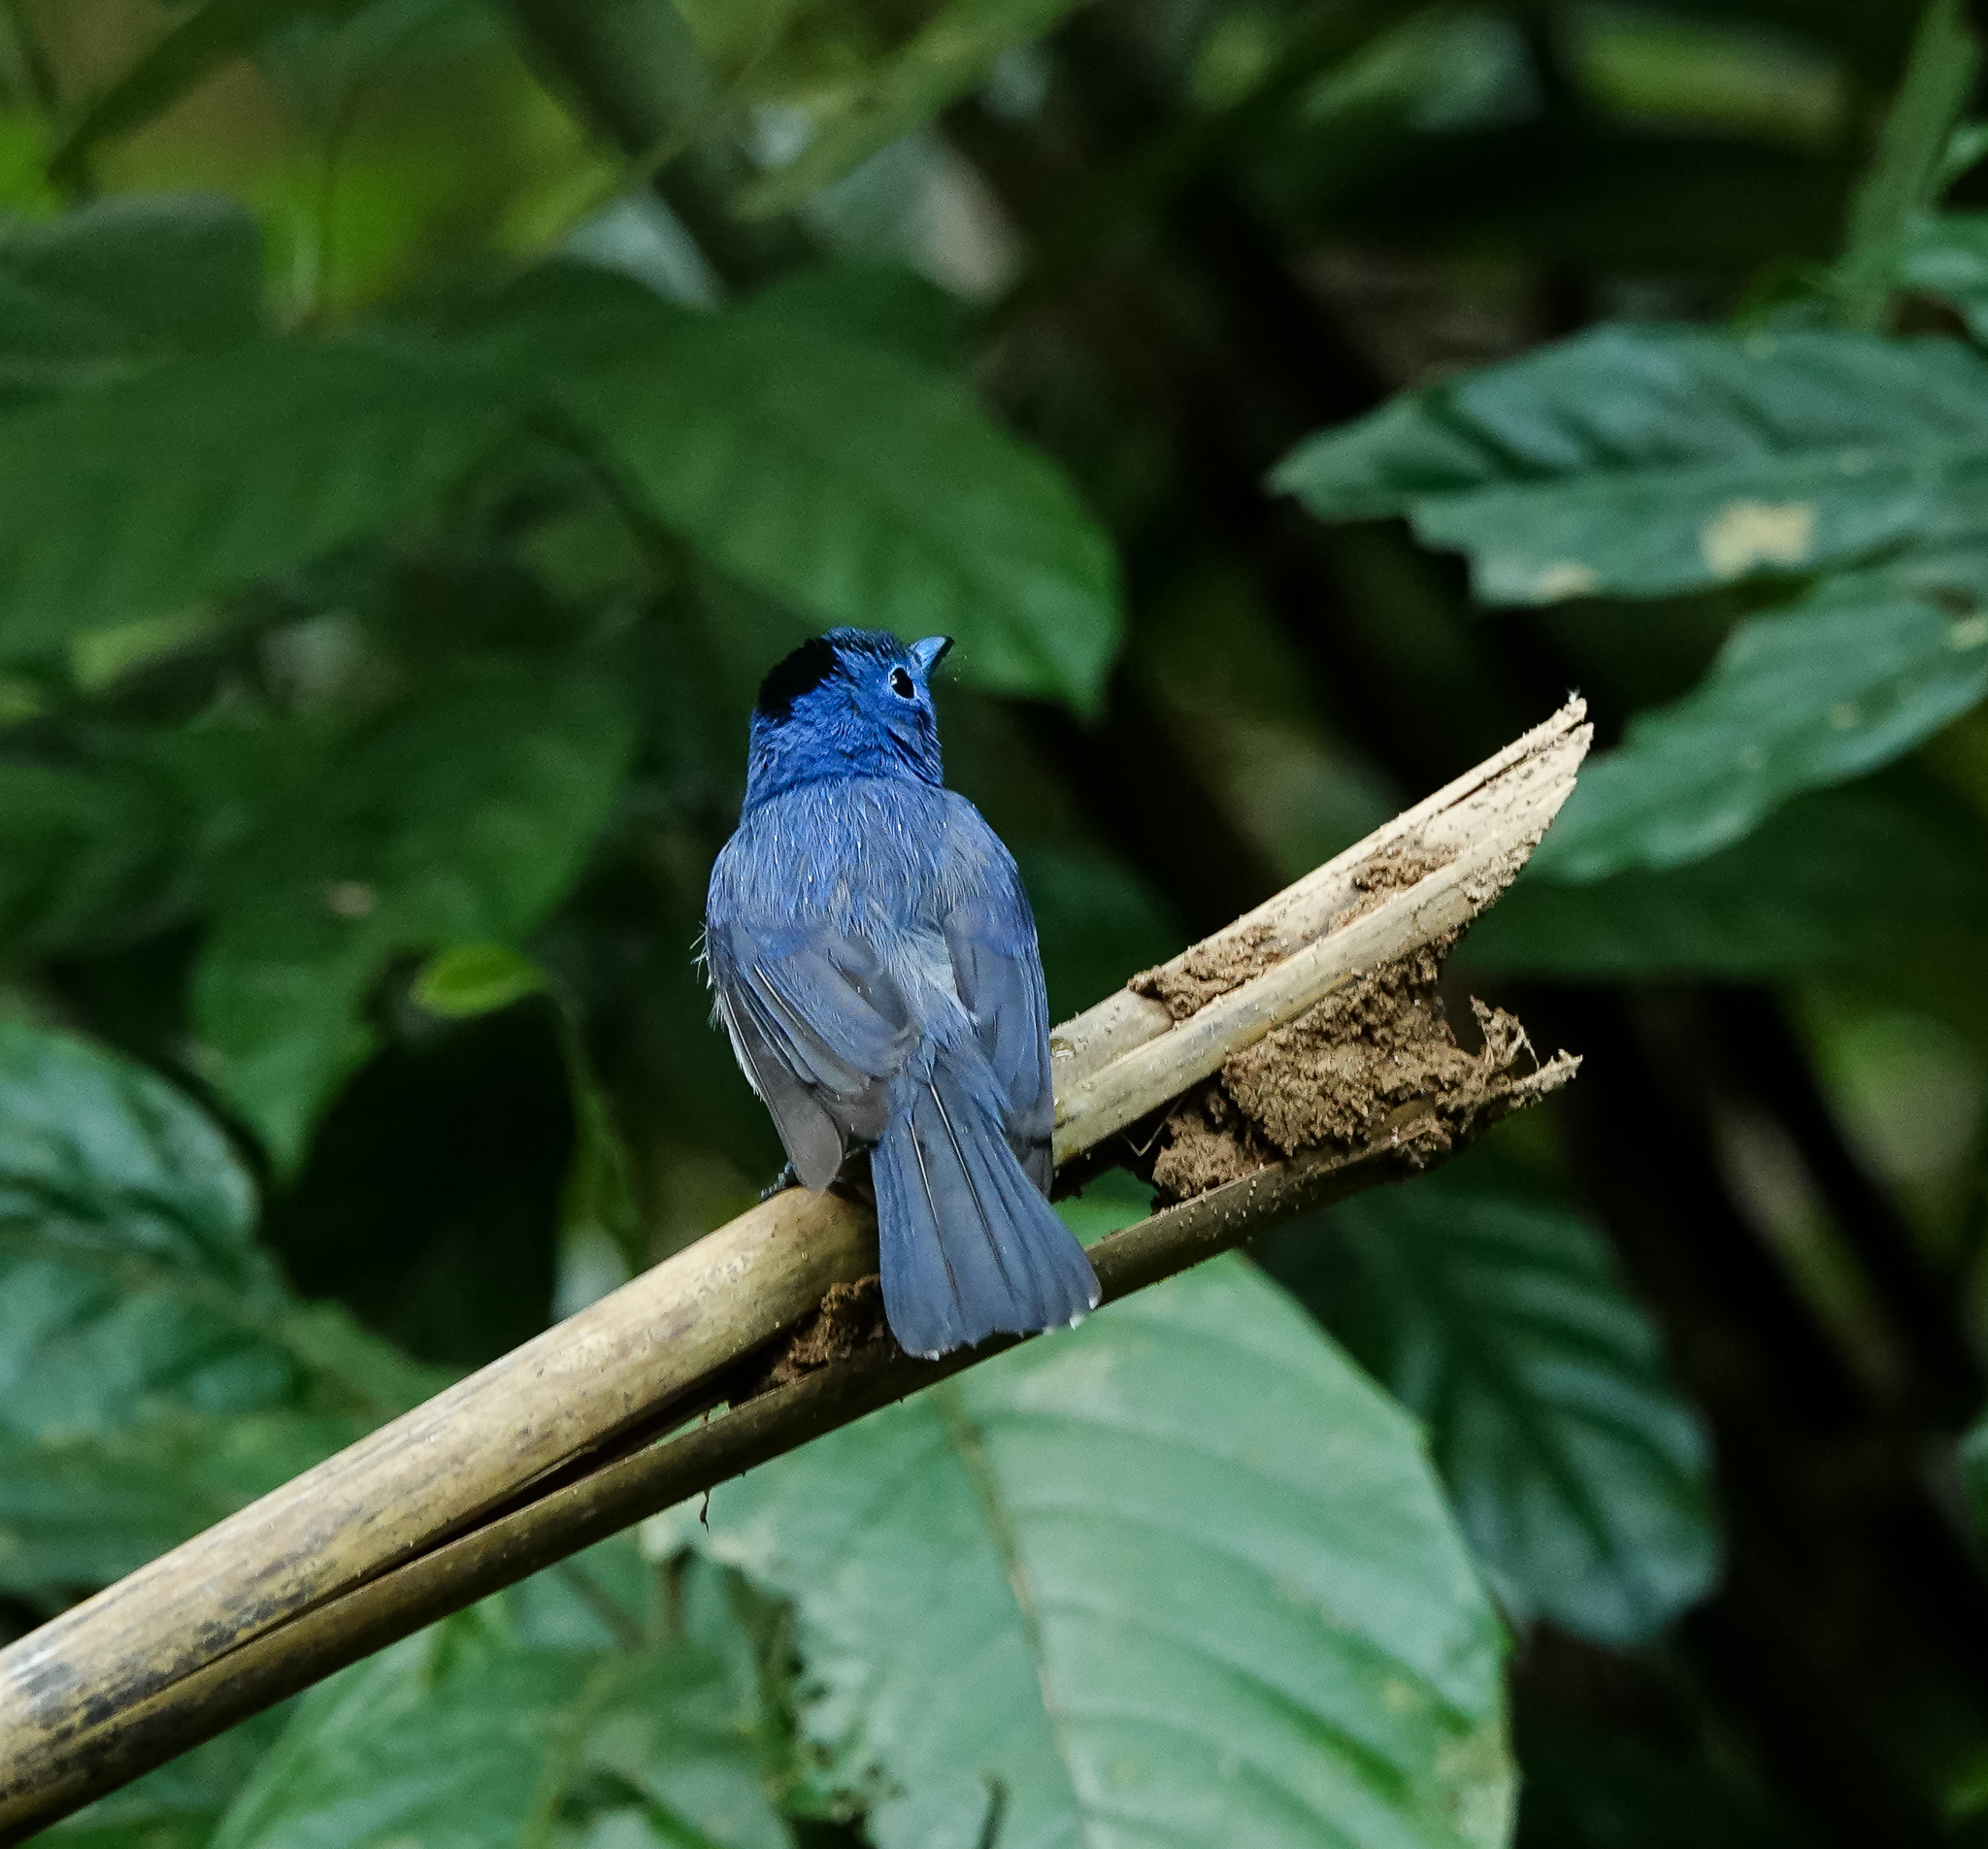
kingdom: Animalia
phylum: Chordata
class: Aves
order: Passeriformes
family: Monarchidae
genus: Hypothymis
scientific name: Hypothymis azurea
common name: Black-naped monarch
